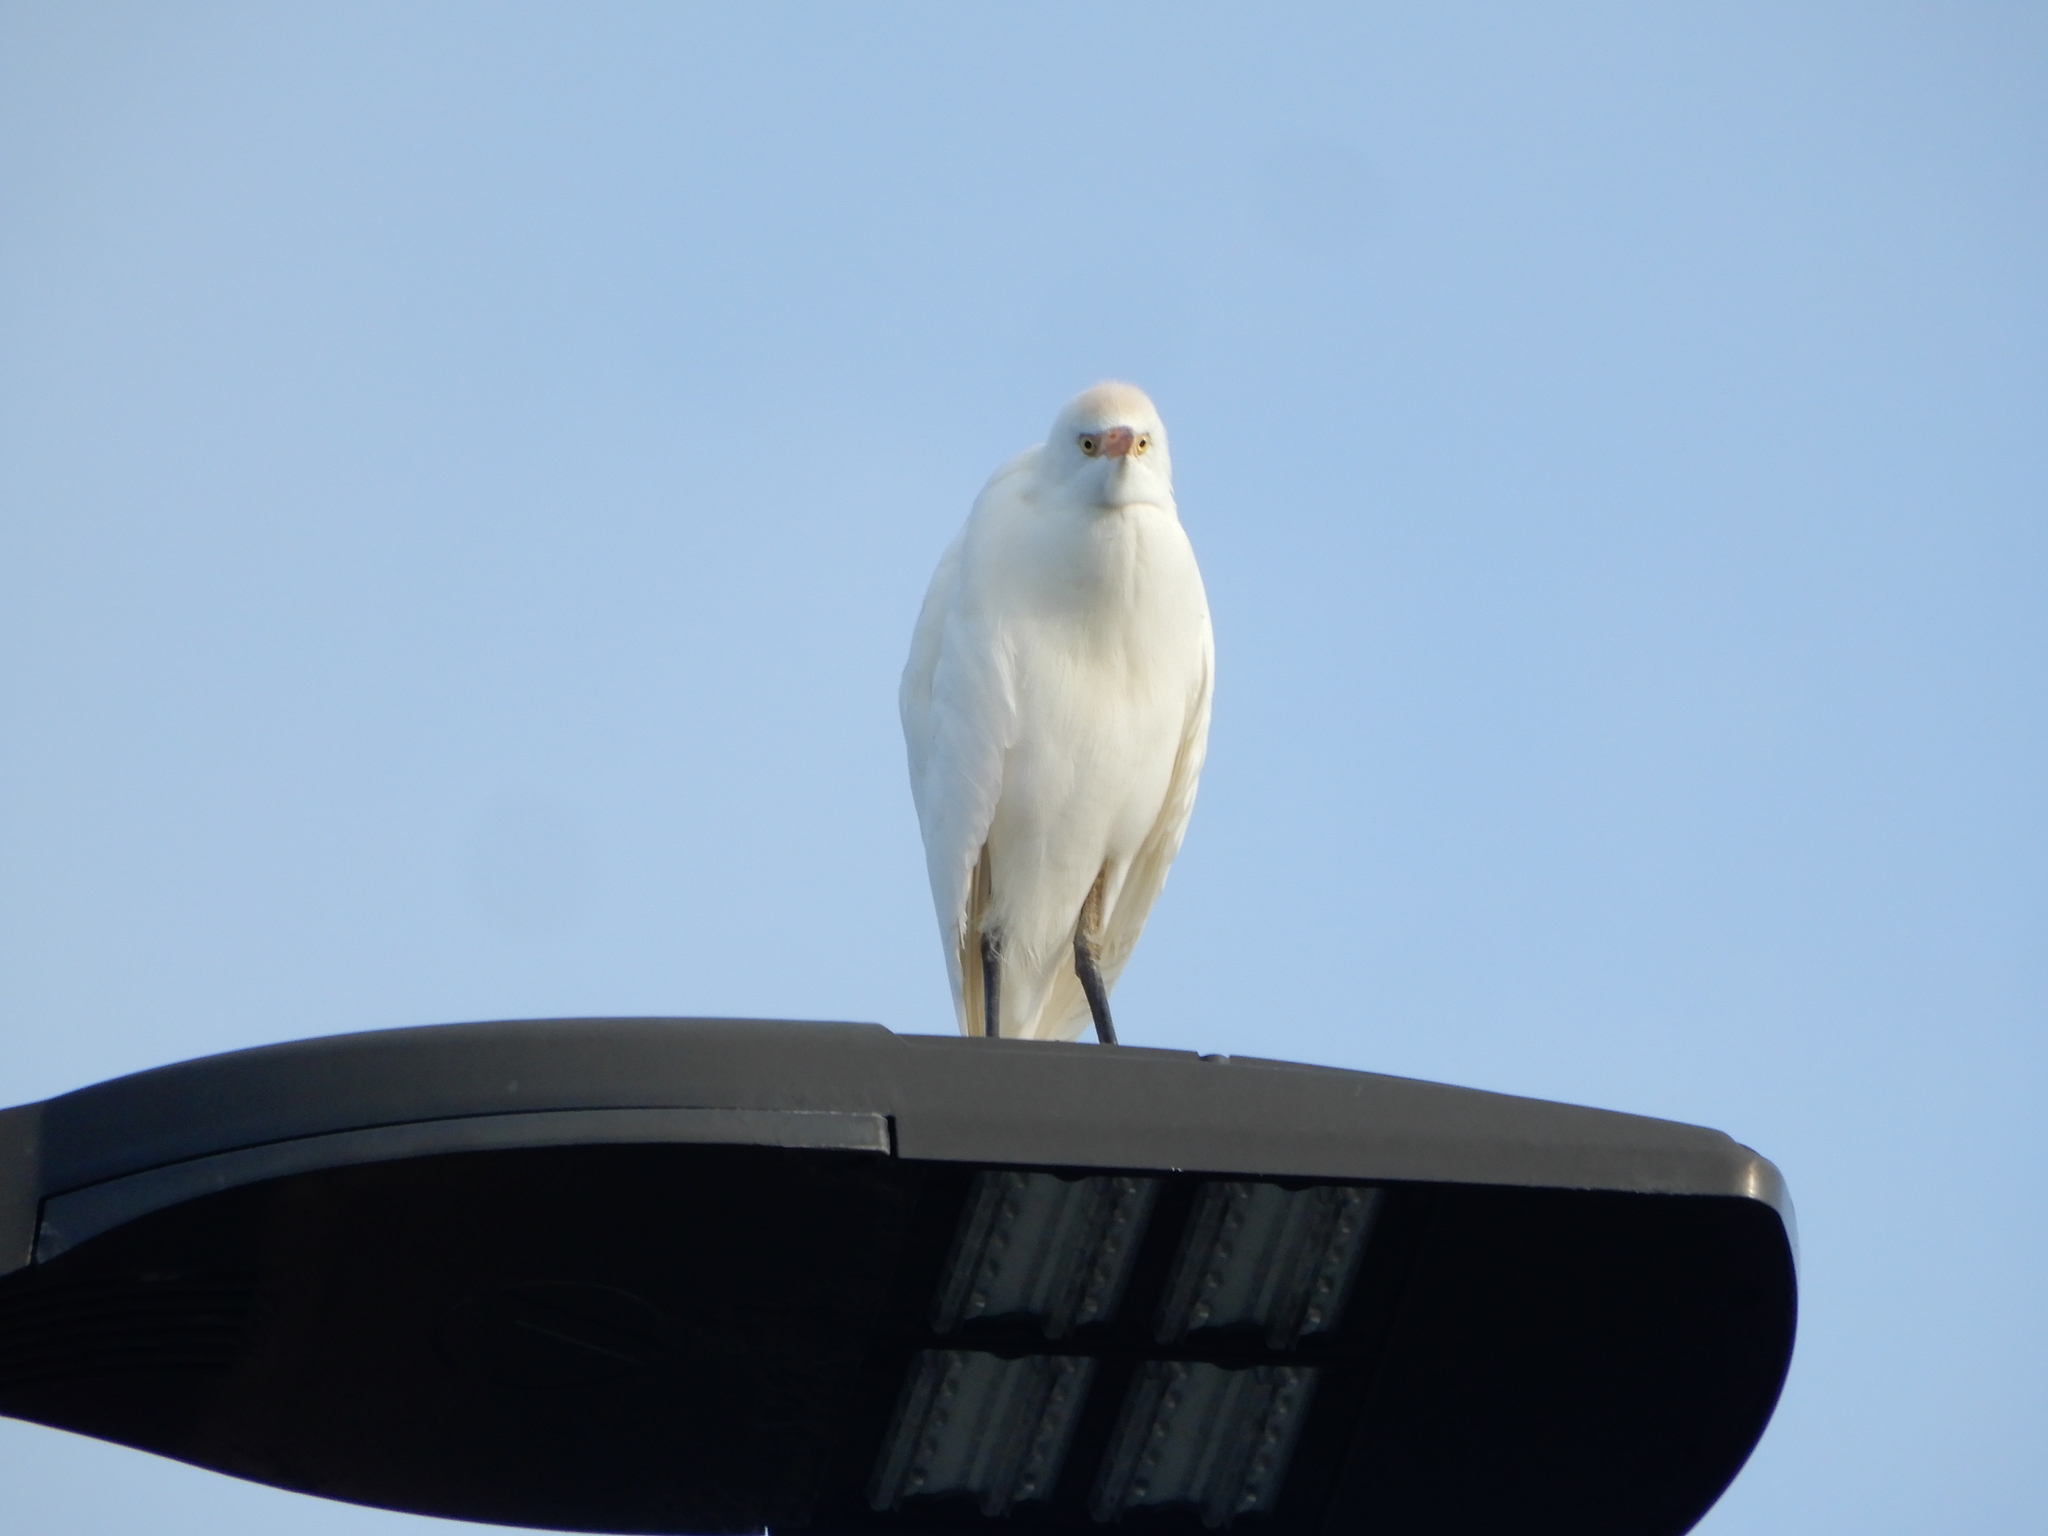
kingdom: Animalia
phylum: Chordata
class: Aves
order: Pelecaniformes
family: Ardeidae
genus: Bubulcus
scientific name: Bubulcus ibis
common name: Cattle egret
